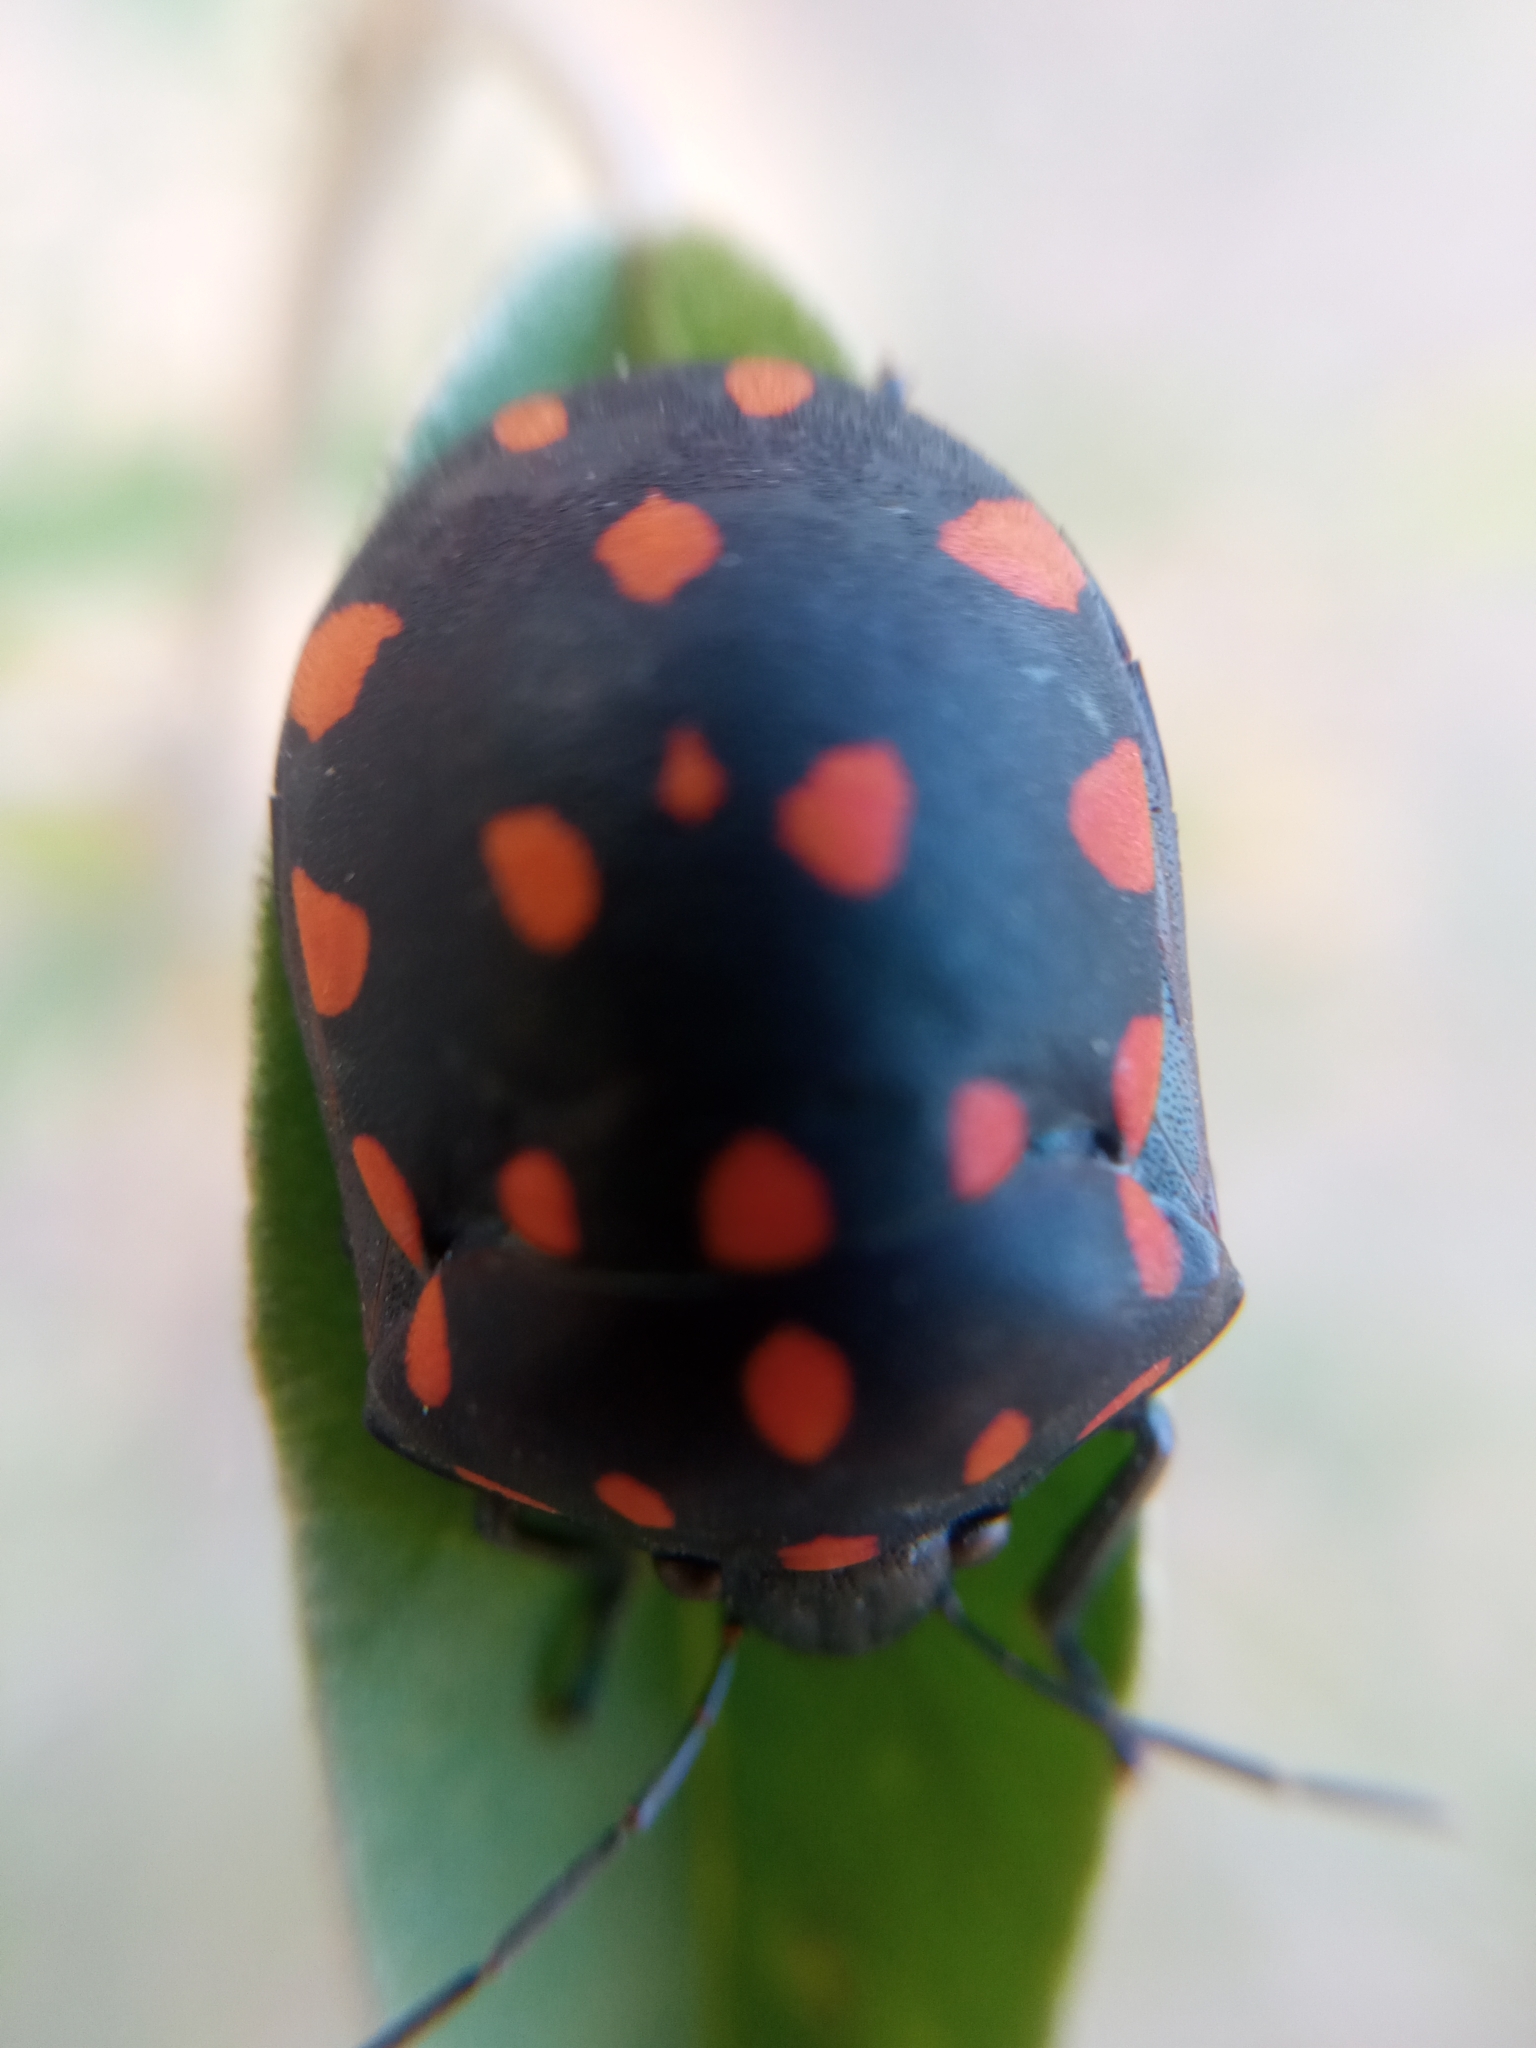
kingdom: Animalia
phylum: Arthropoda
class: Insecta
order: Hemiptera
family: Scutelleridae
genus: Pachycoris
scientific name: Pachycoris klugii
